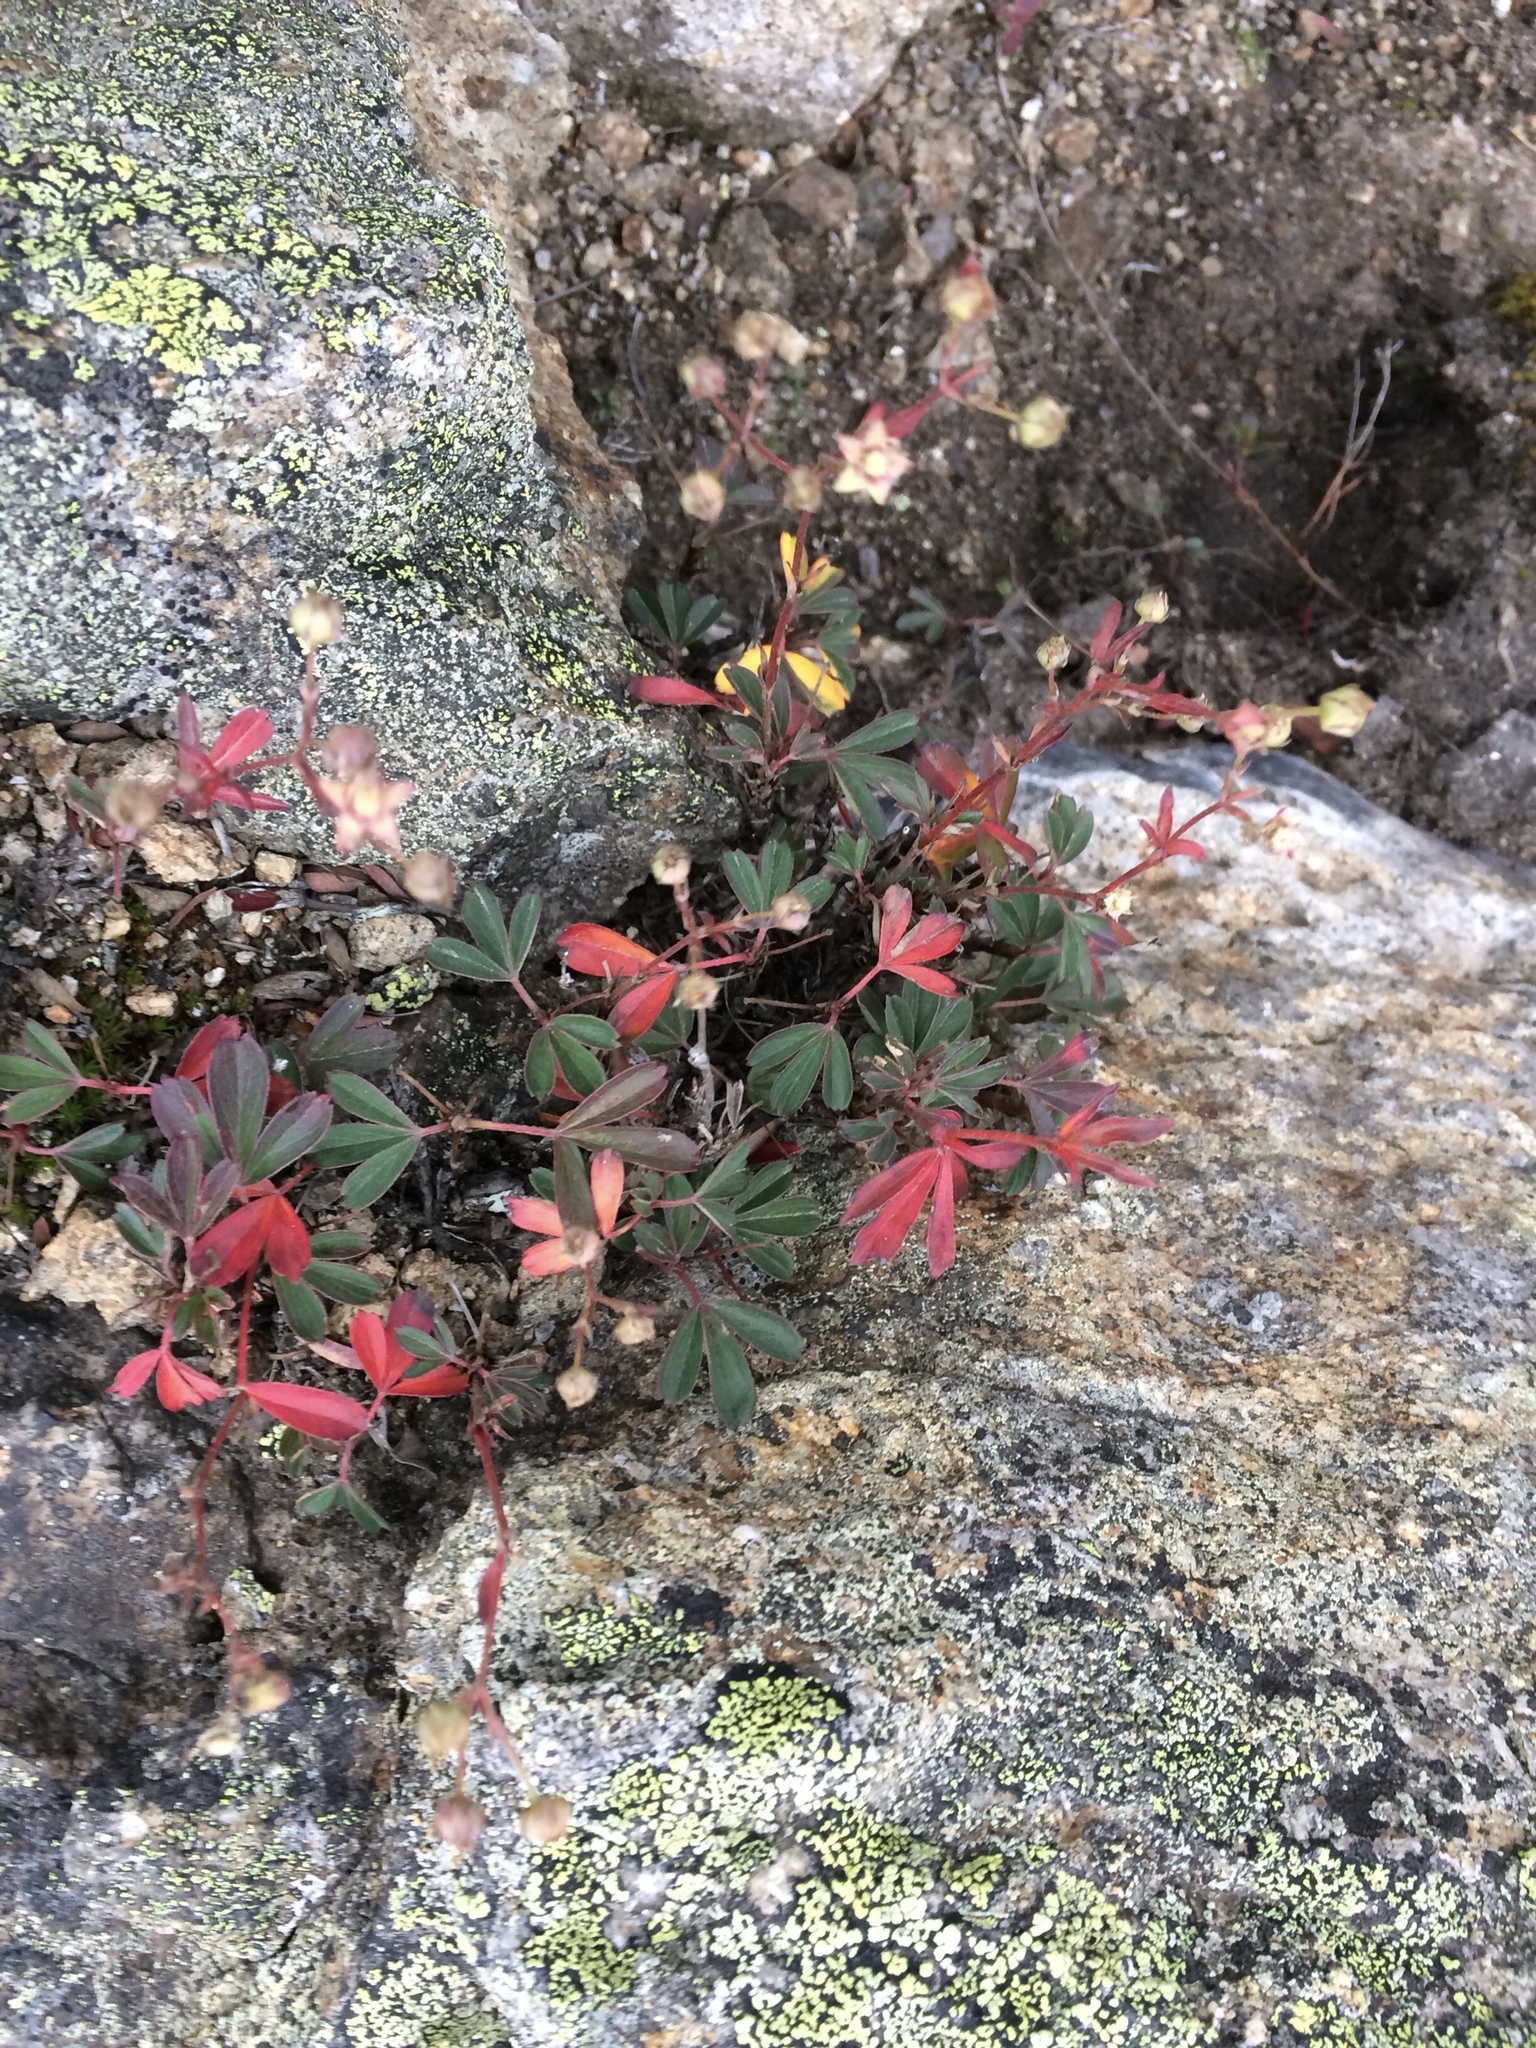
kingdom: Plantae
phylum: Tracheophyta
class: Magnoliopsida
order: Rosales
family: Rosaceae
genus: Sibbaldia
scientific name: Sibbaldia tridentata
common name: Three-toothed cinquefoil
